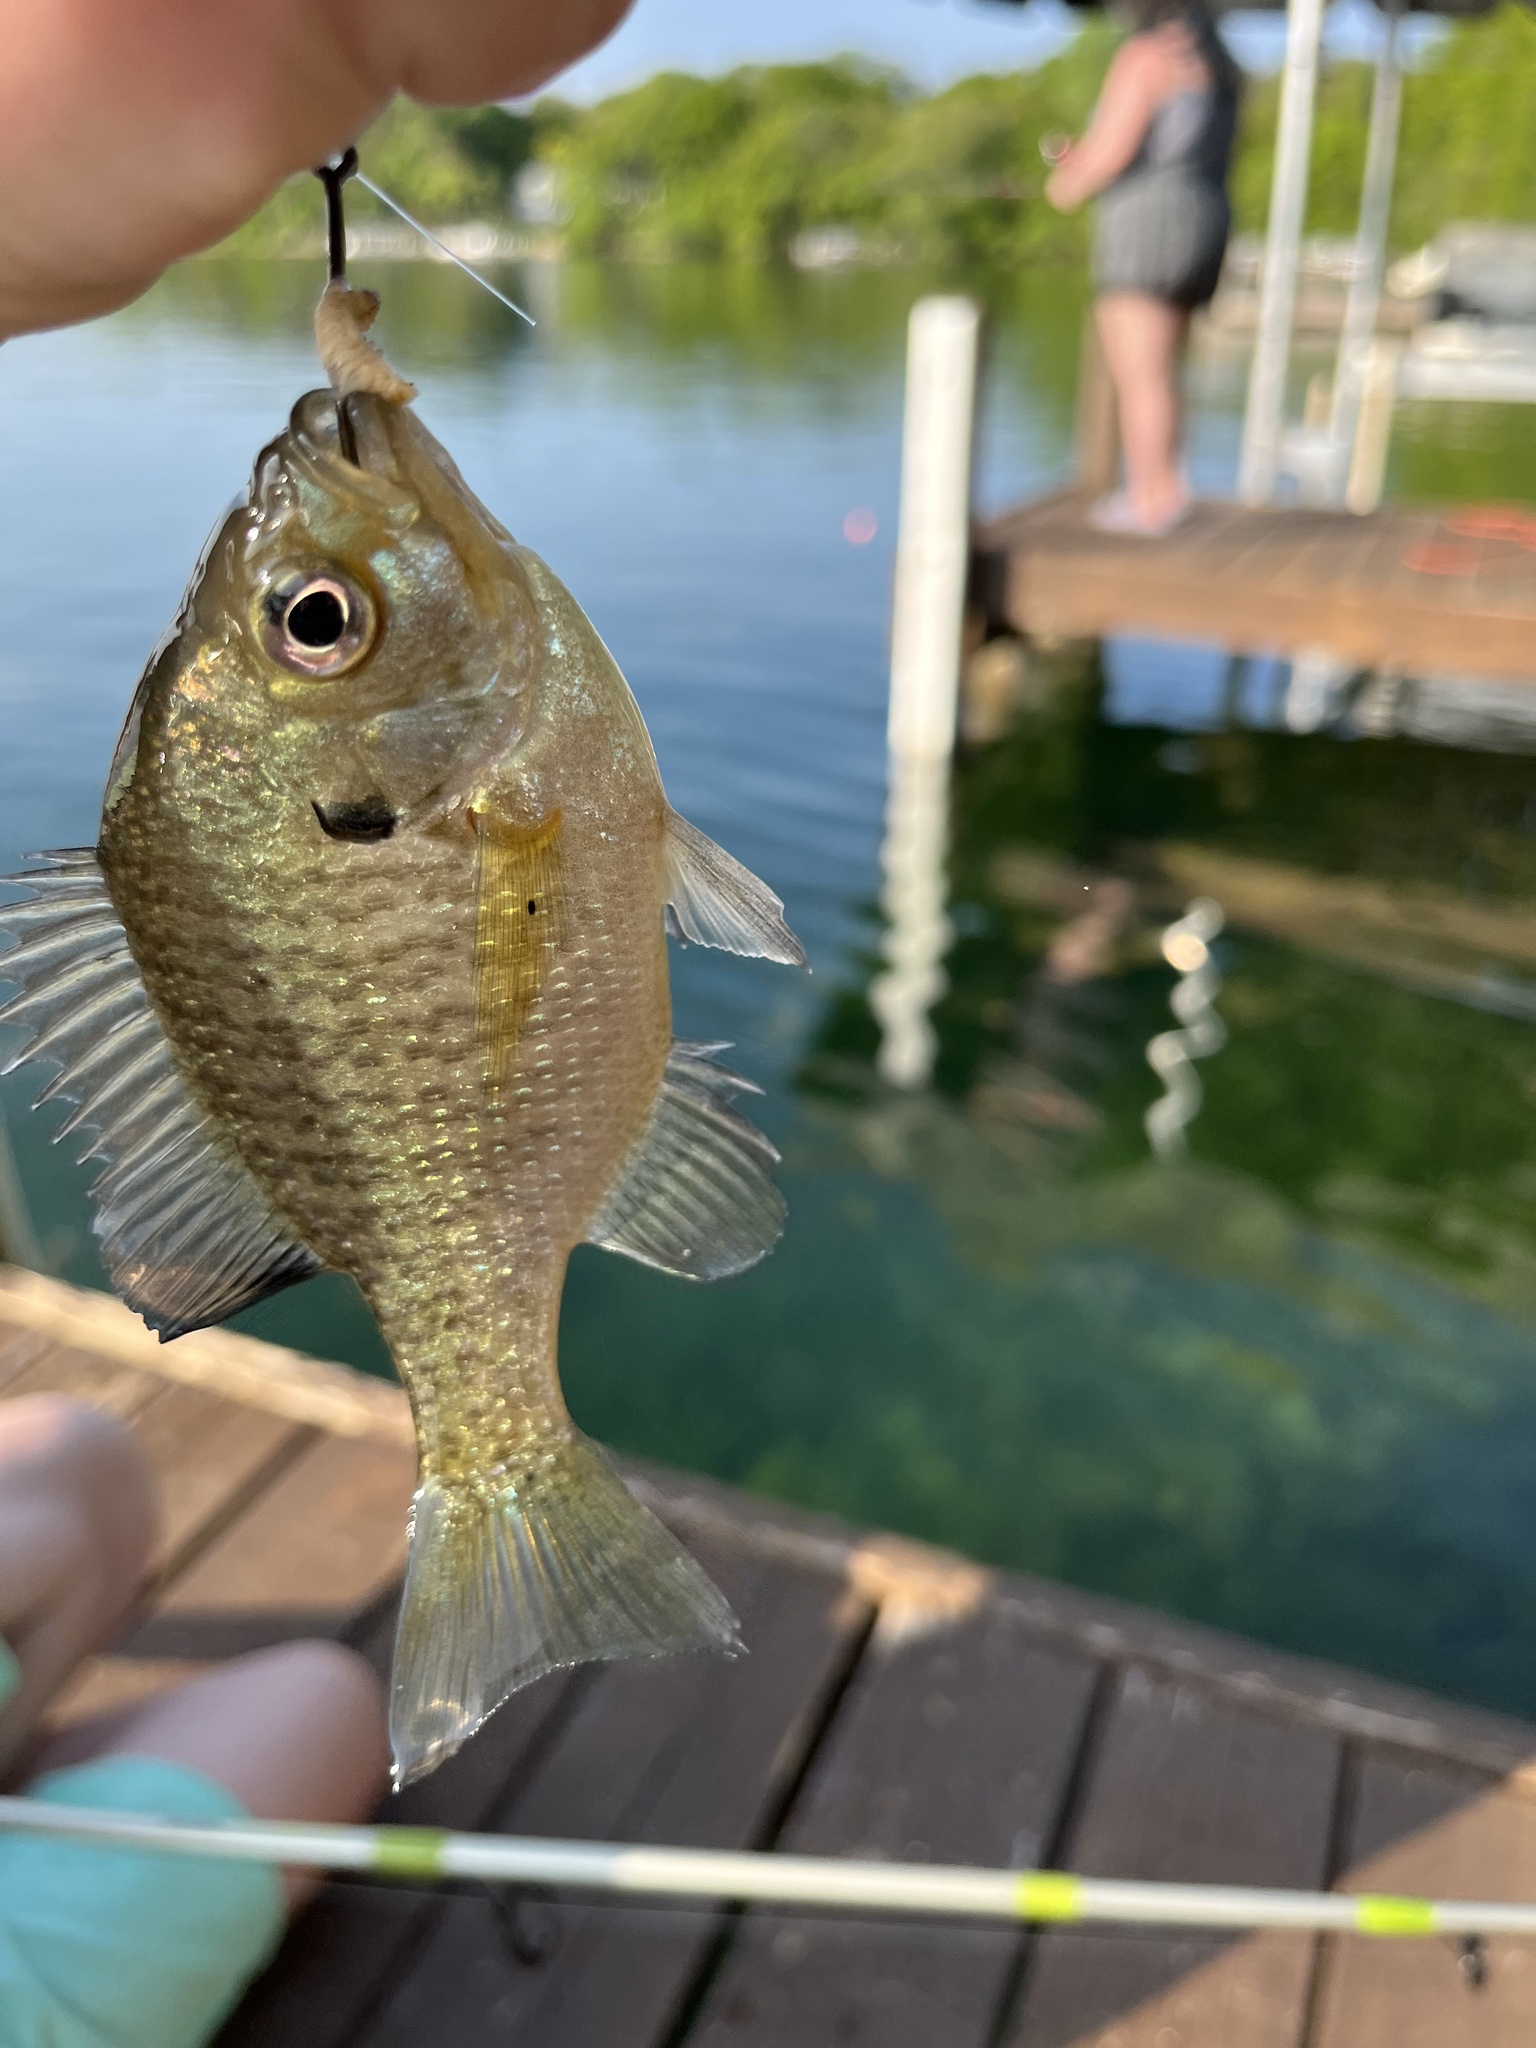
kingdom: Animalia
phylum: Chordata
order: Perciformes
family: Centrarchidae
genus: Lepomis
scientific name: Lepomis macrochirus
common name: Bluegill
